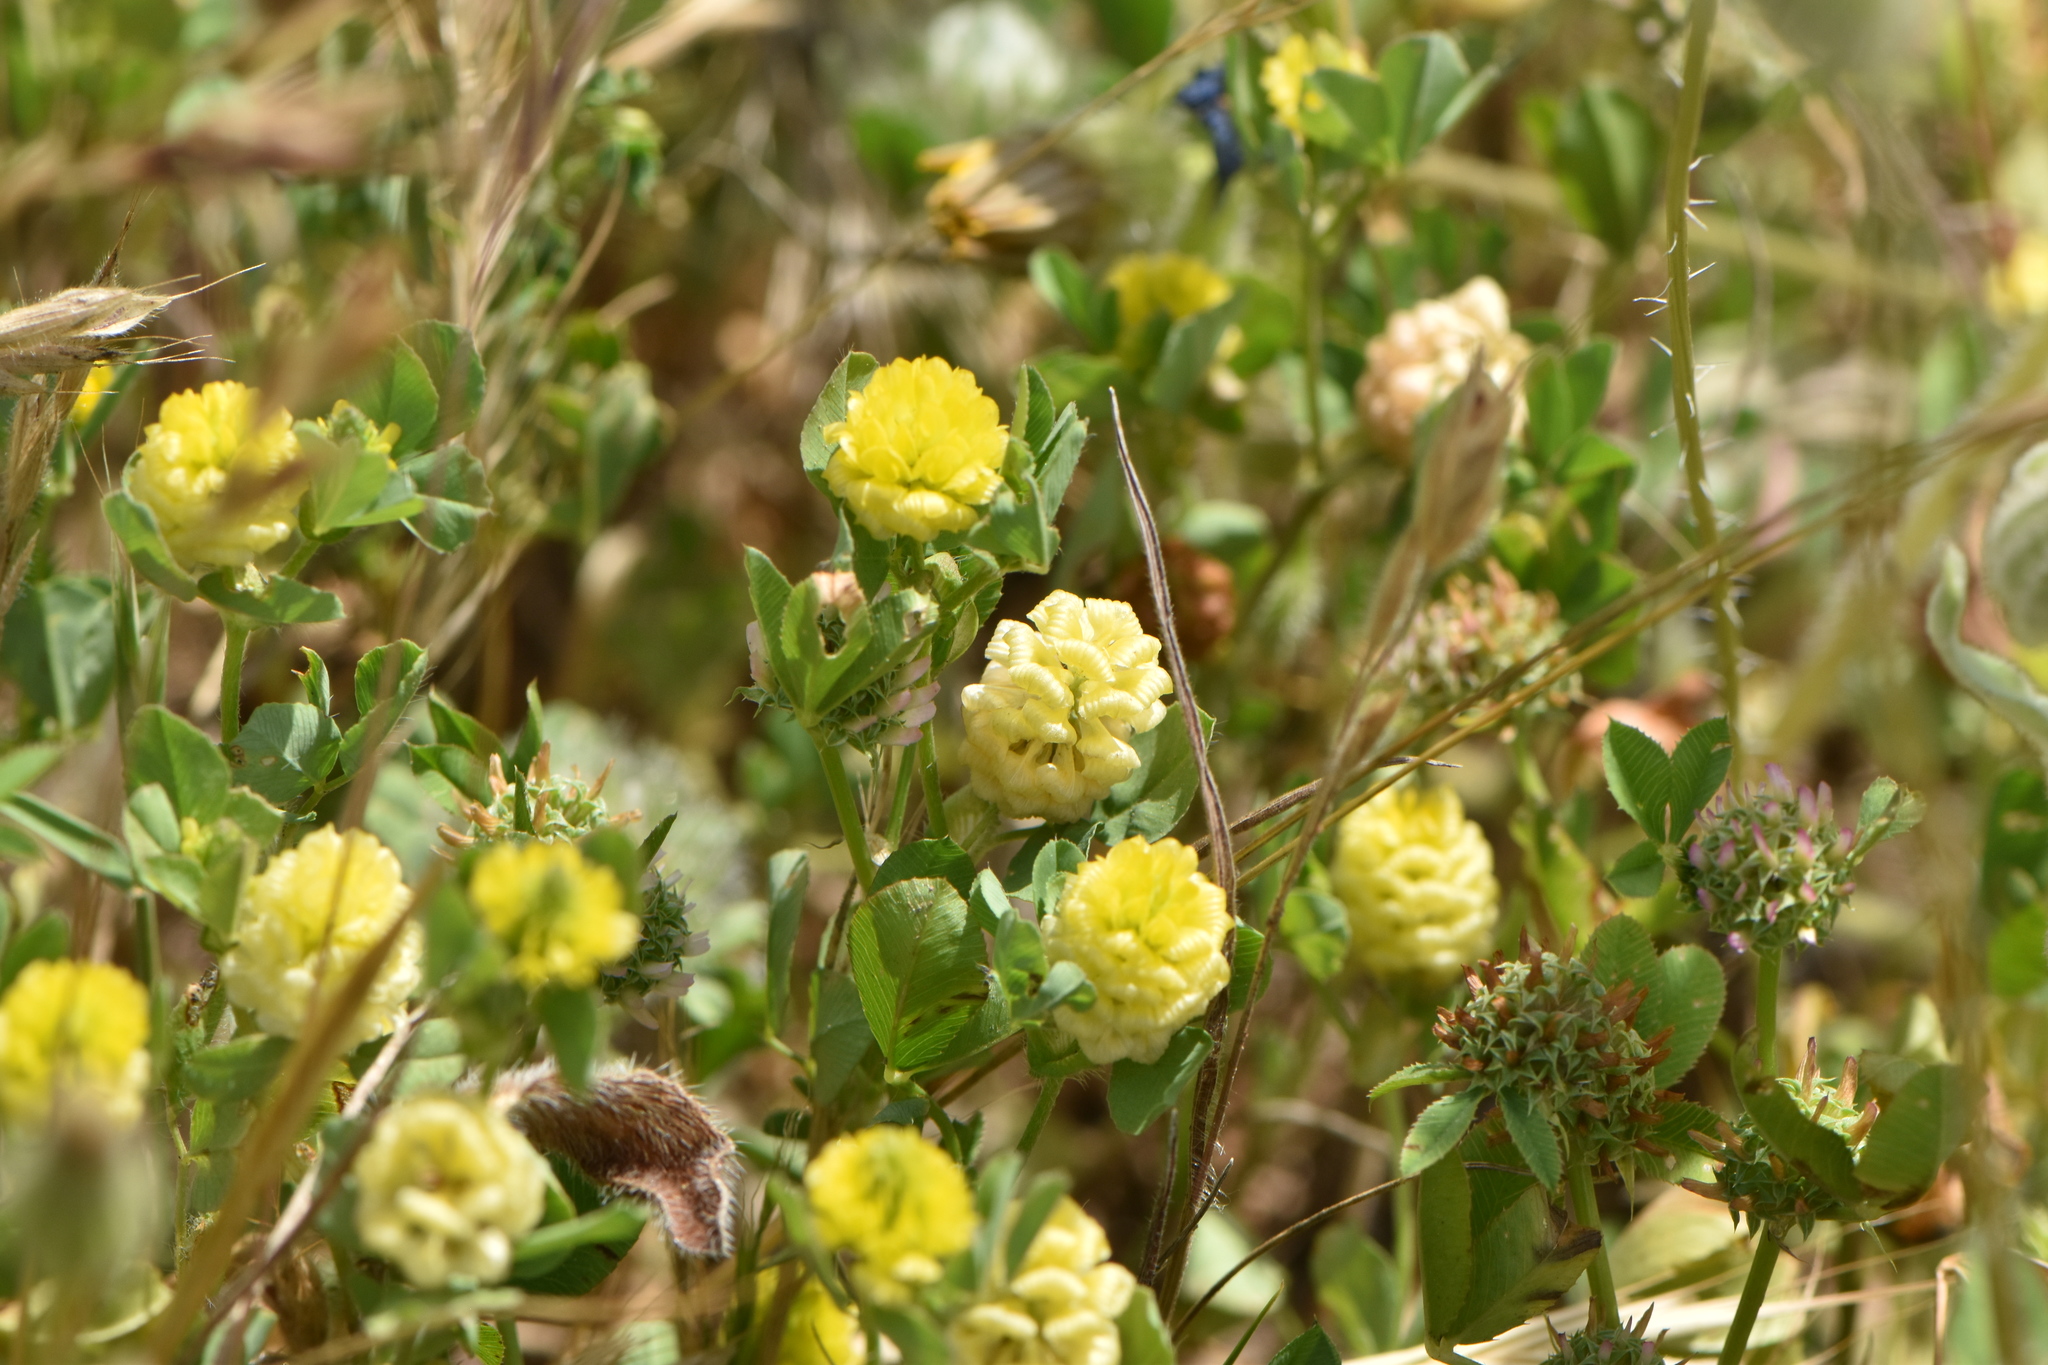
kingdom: Plantae
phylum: Tracheophyta
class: Magnoliopsida
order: Fabales
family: Fabaceae
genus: Trifolium
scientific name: Trifolium campestre
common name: Field clover
